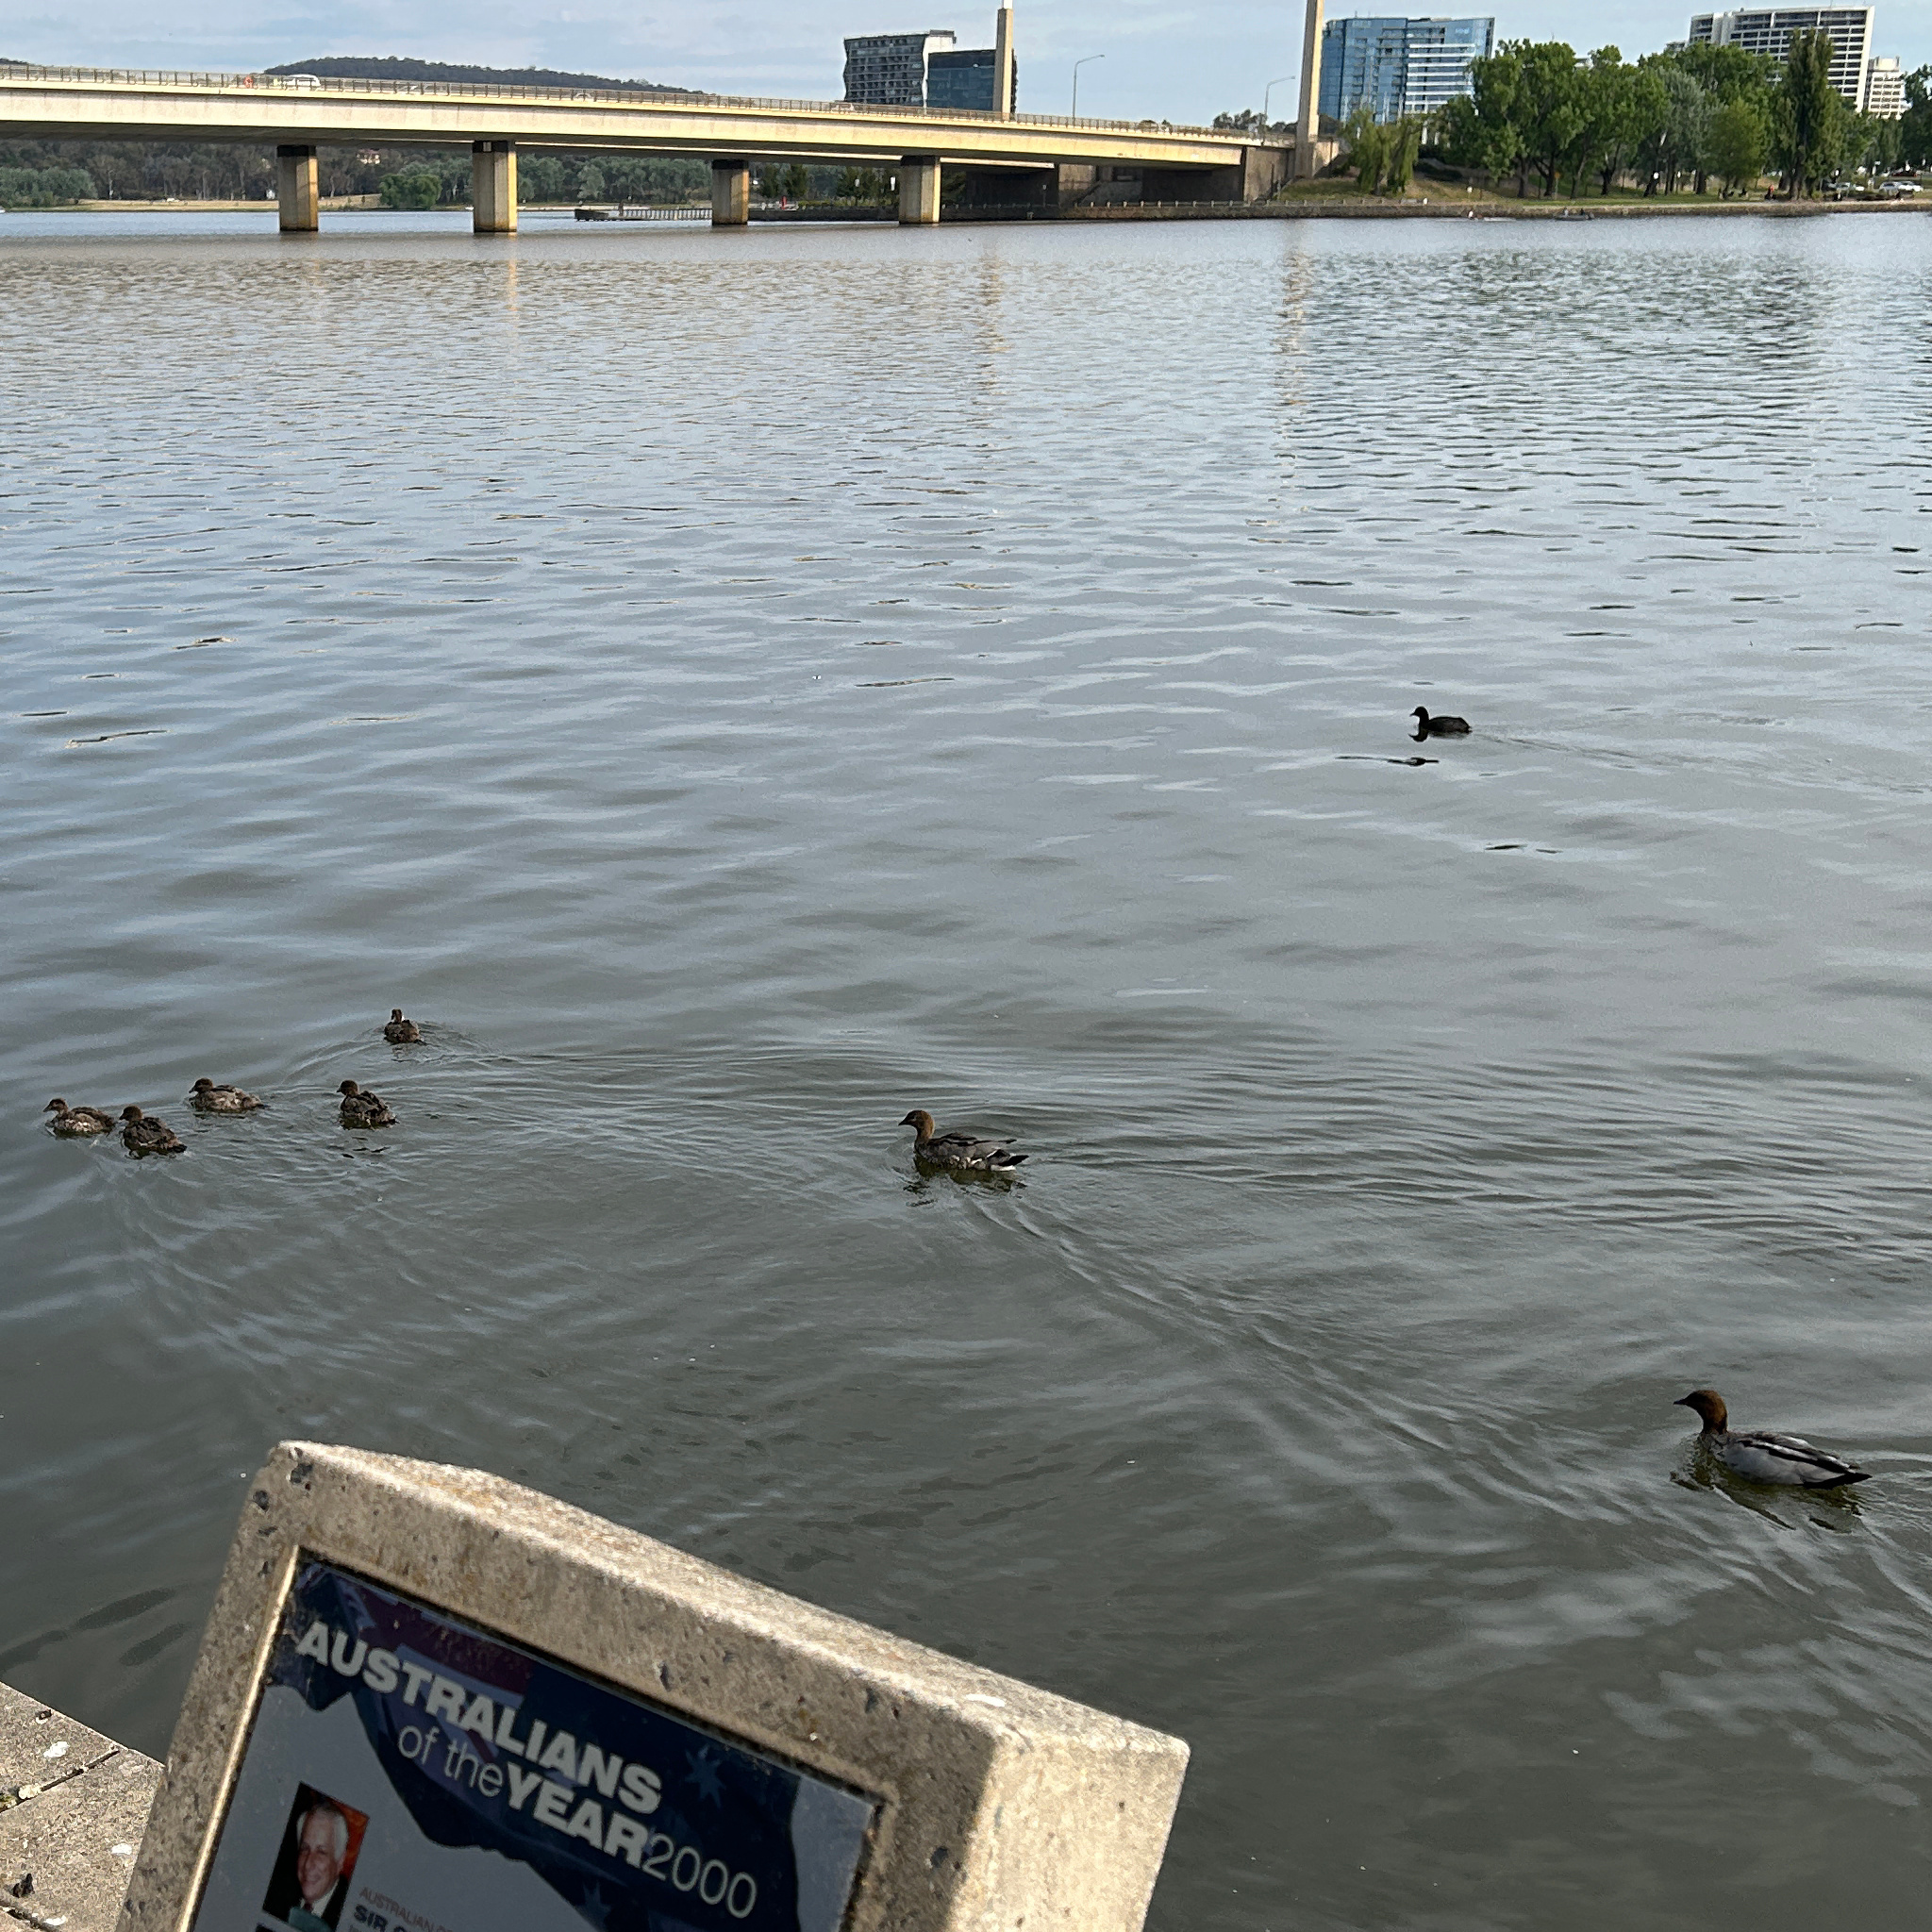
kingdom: Animalia
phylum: Chordata
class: Aves
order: Anseriformes
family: Anatidae
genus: Chenonetta
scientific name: Chenonetta jubata
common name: Maned duck
